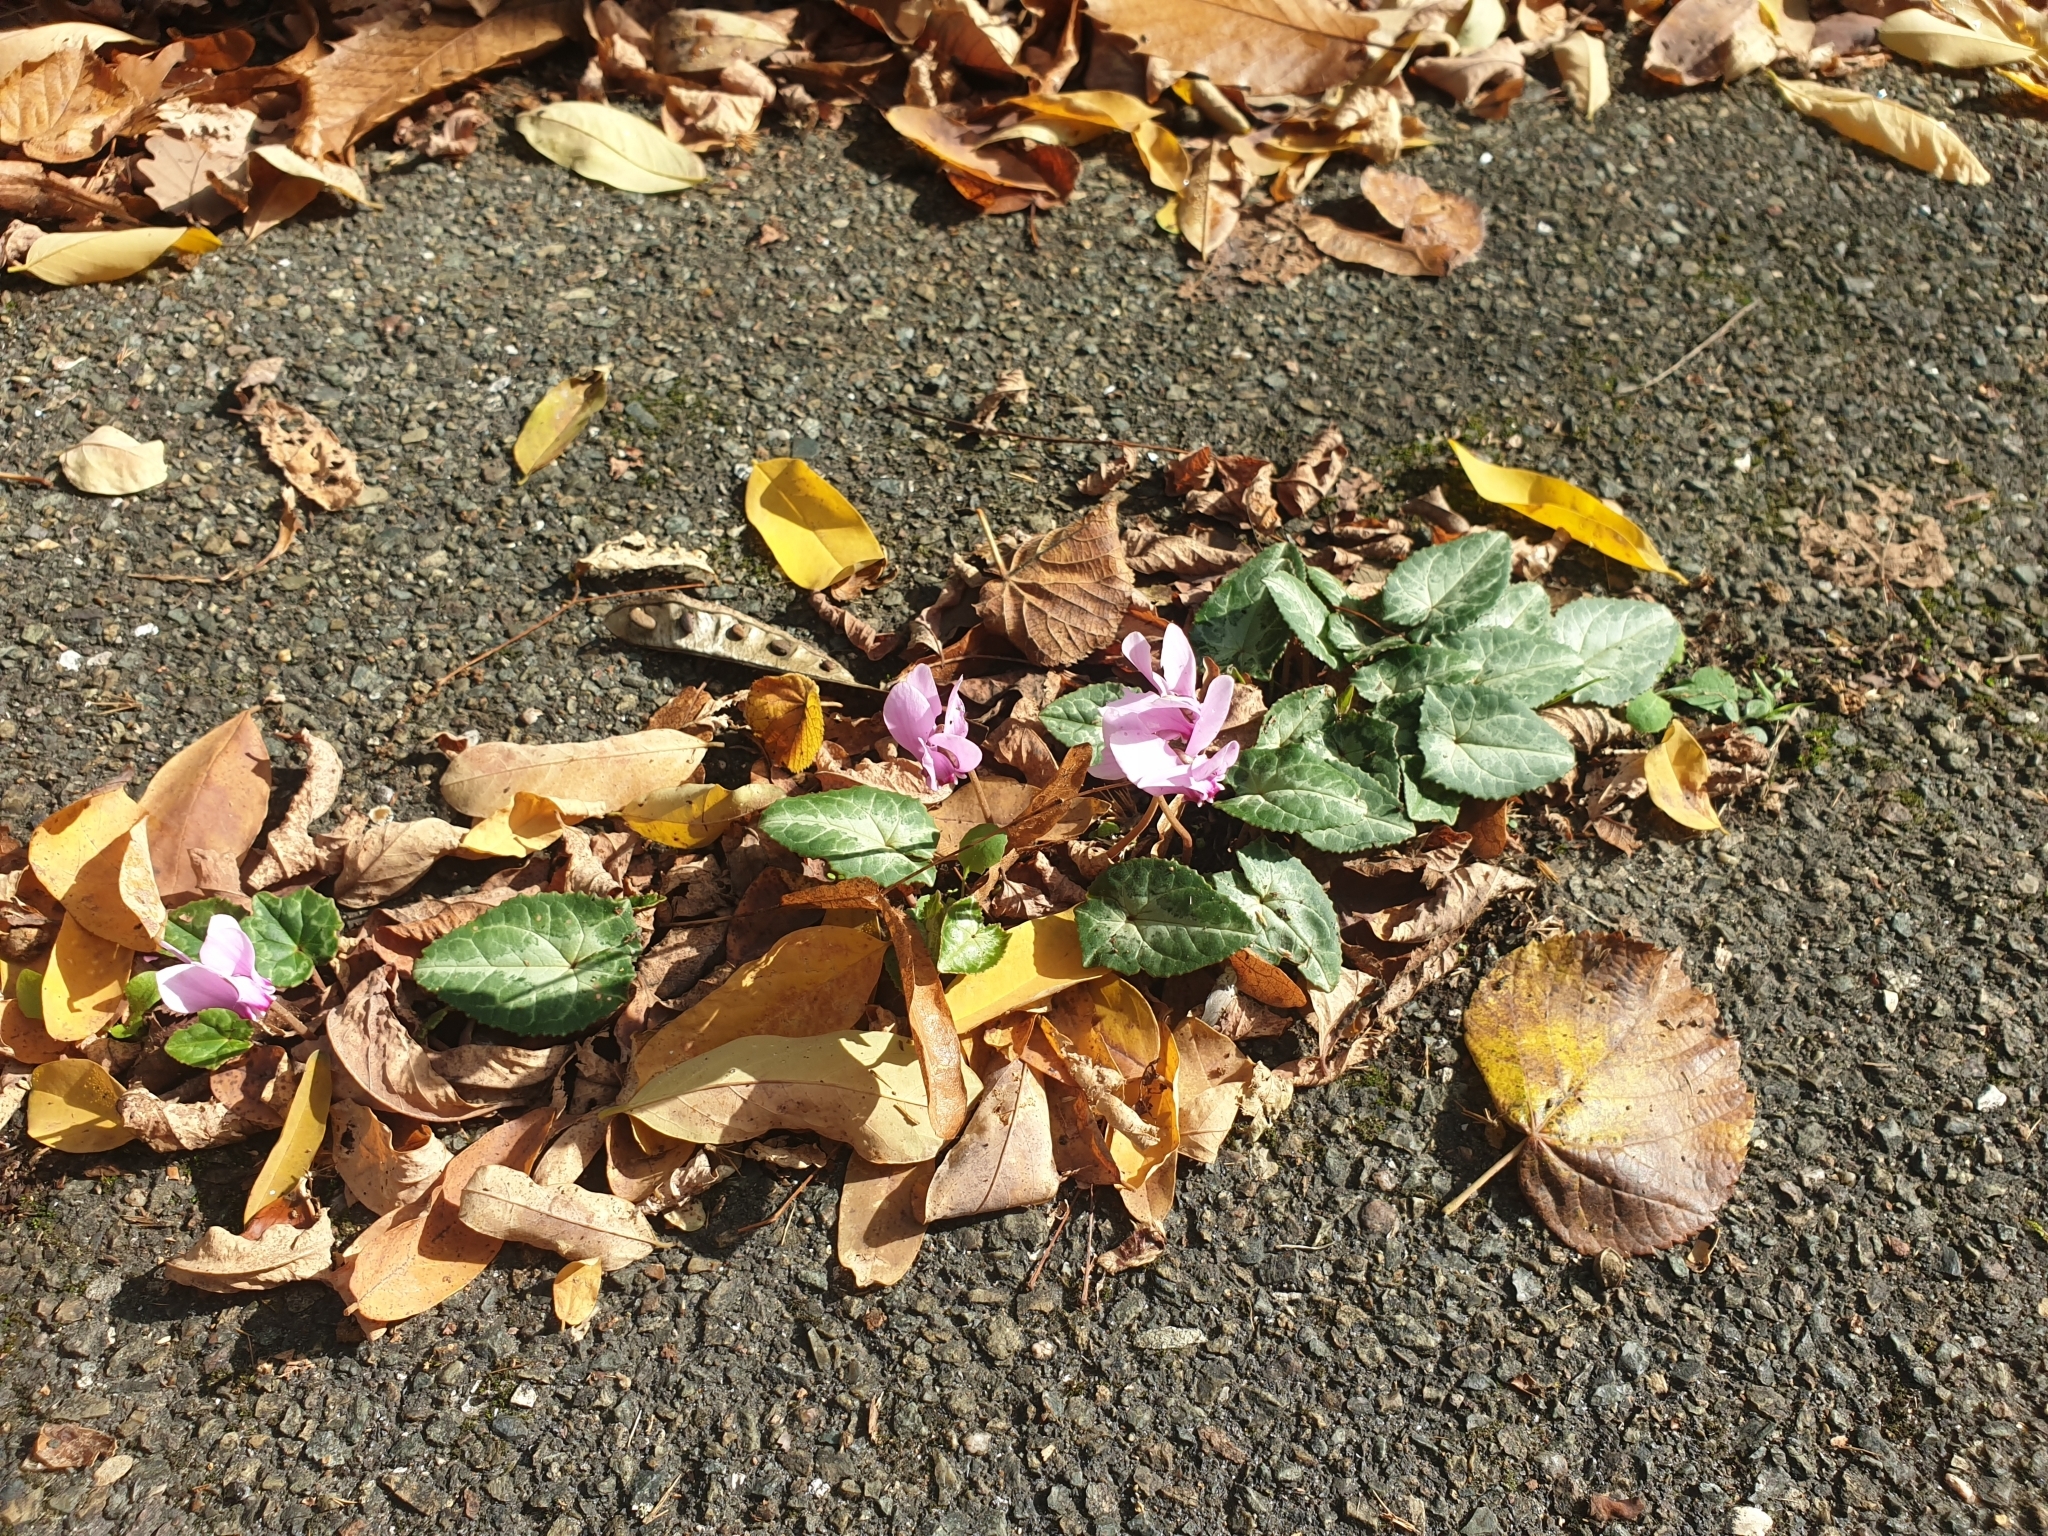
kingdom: Plantae
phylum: Tracheophyta
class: Magnoliopsida
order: Ericales
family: Primulaceae
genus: Cyclamen
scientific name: Cyclamen hederifolium
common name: Sowbread
